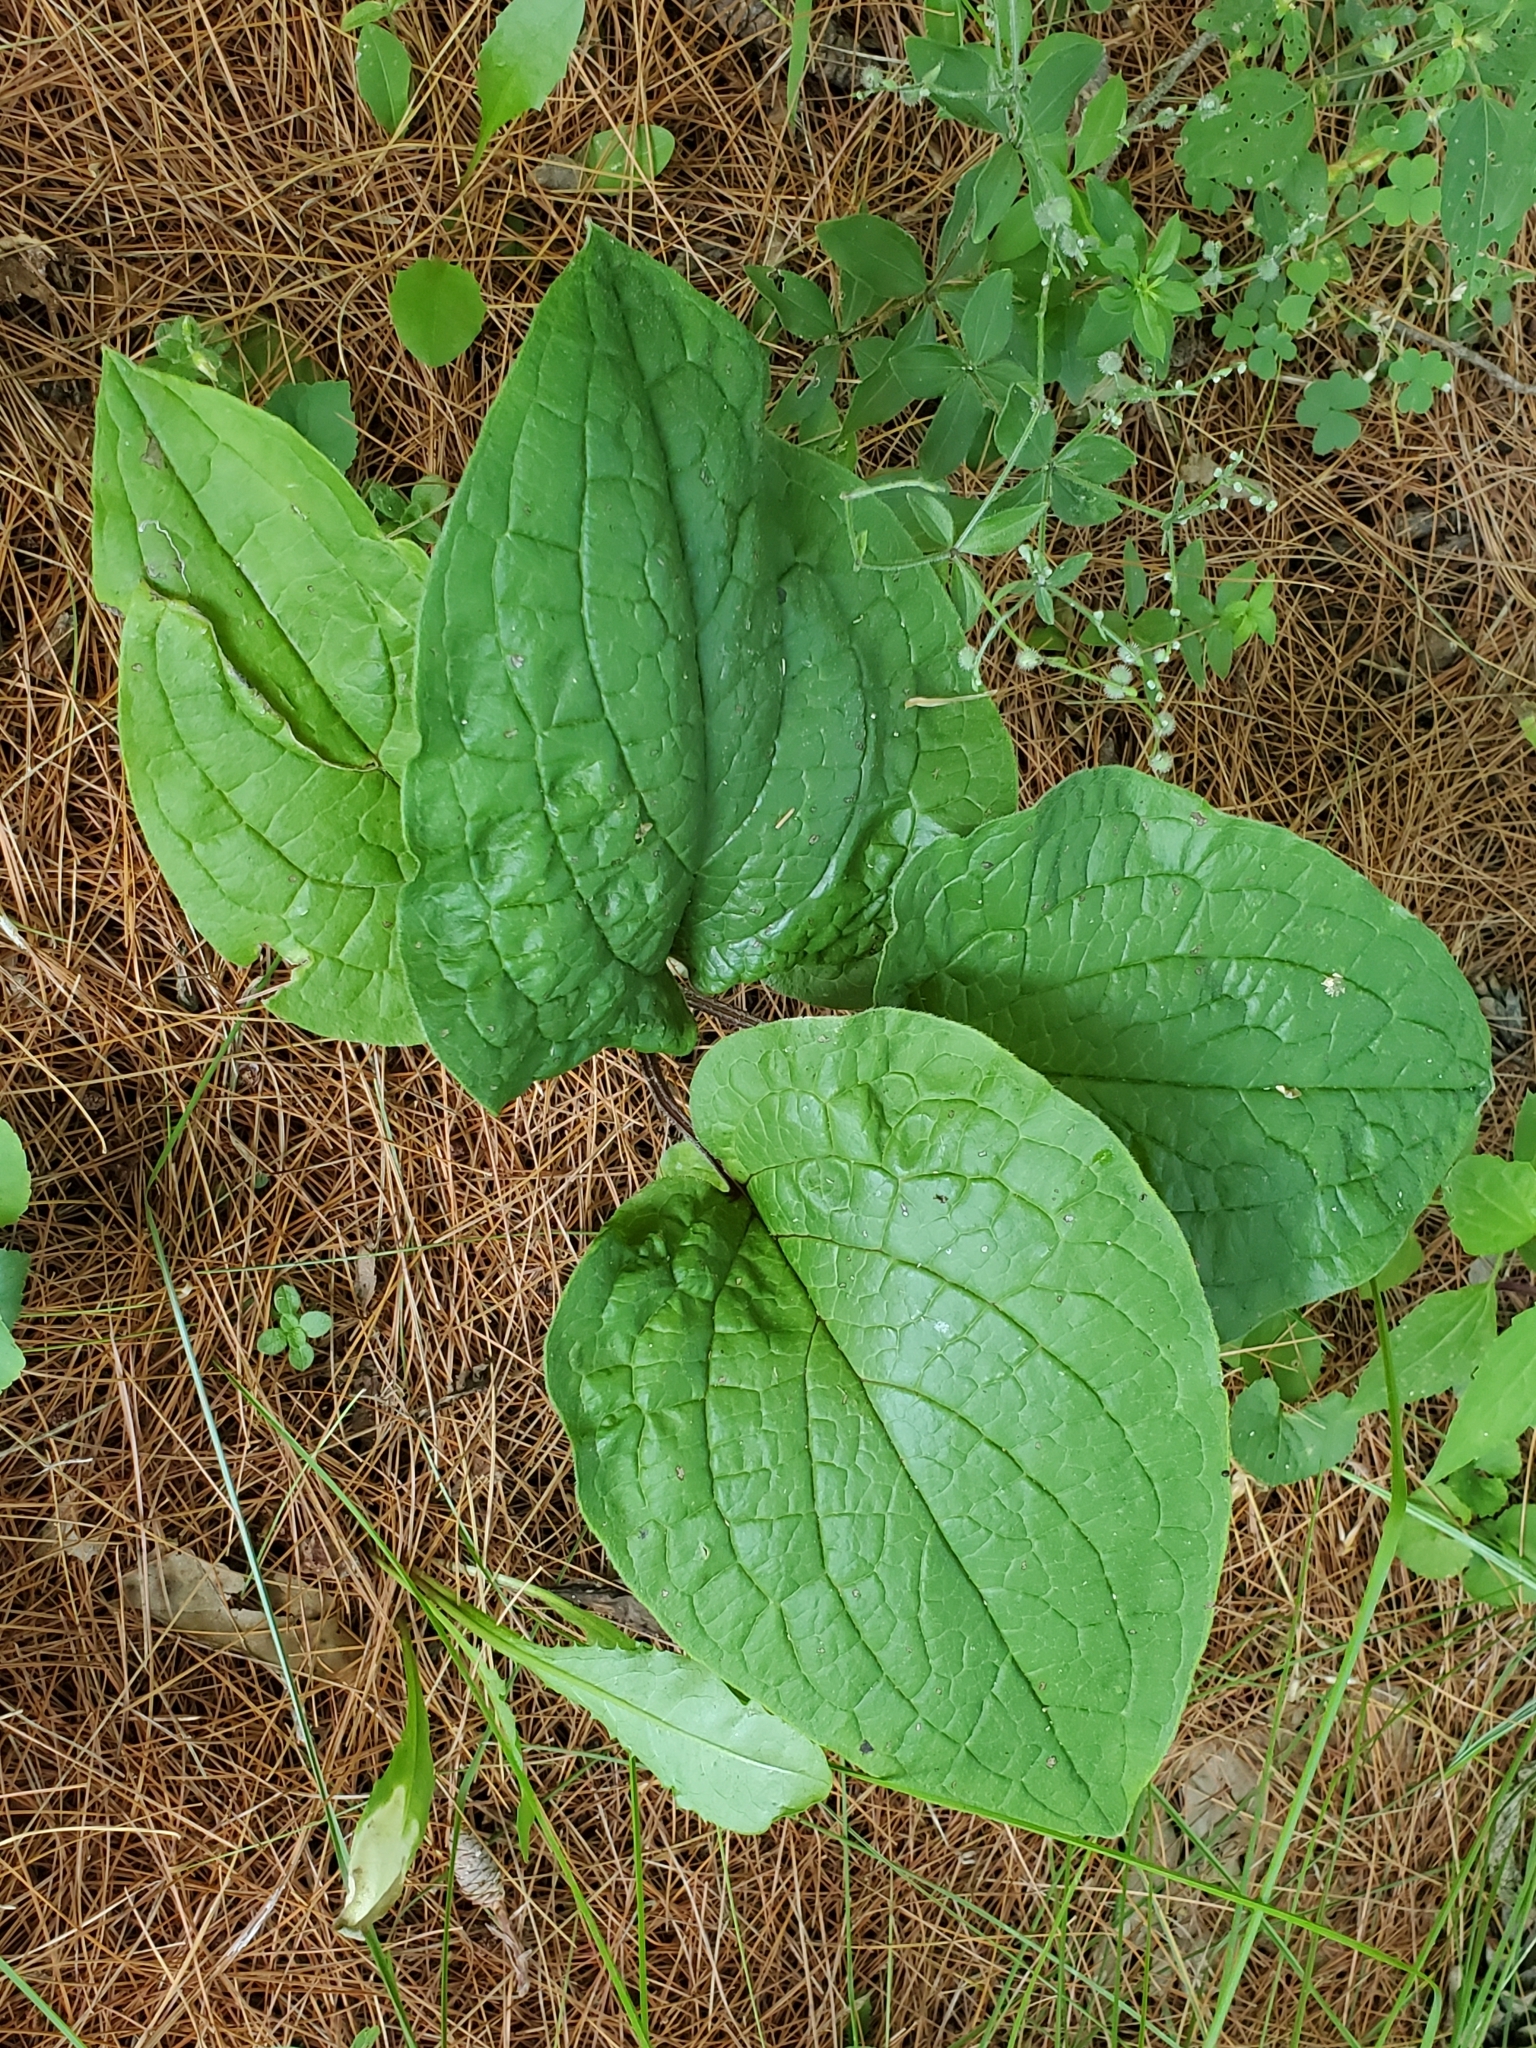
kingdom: Plantae
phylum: Tracheophyta
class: Magnoliopsida
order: Boraginales
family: Boraginaceae
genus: Hackelia
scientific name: Hackelia virginiana
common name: Beggar's-lice
